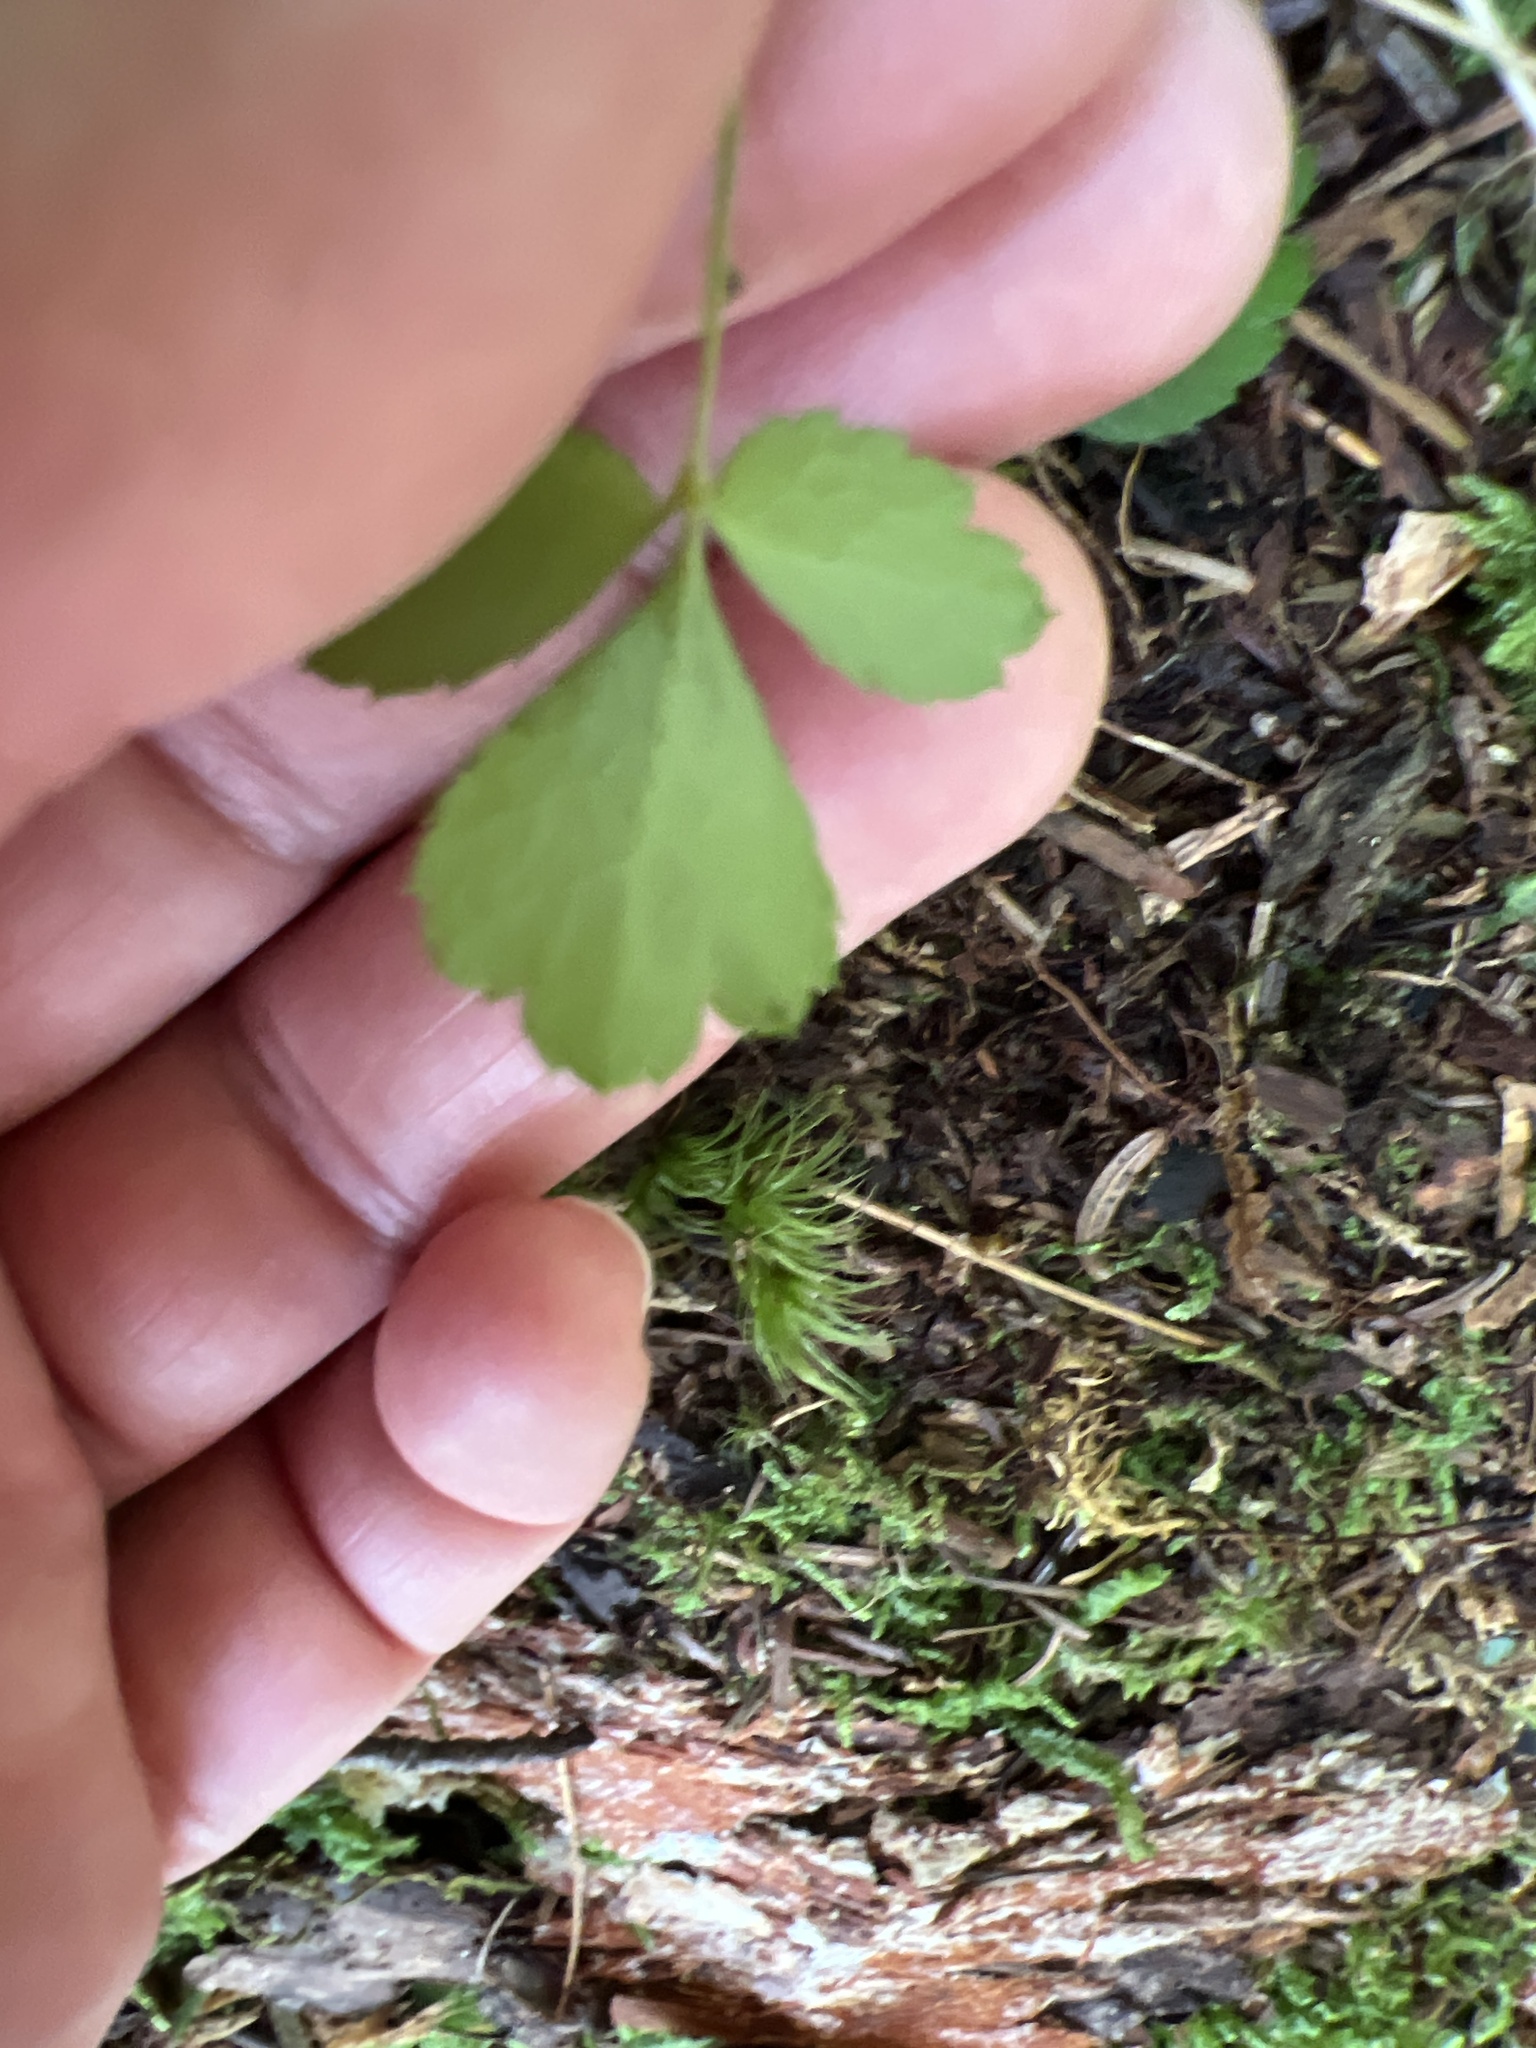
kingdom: Plantae
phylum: Tracheophyta
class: Magnoliopsida
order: Ranunculales
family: Ranunculaceae
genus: Coptis
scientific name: Coptis trifolia
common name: Canker-root
